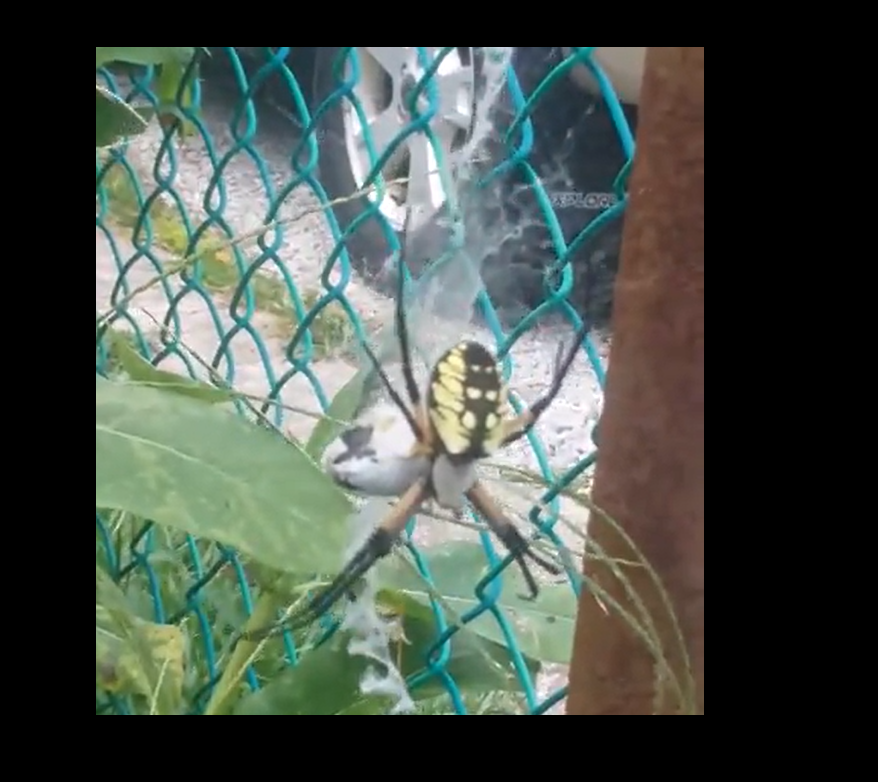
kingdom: Animalia
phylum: Arthropoda
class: Arachnida
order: Araneae
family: Araneidae
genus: Argiope
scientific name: Argiope aurantia
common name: Orb weavers
